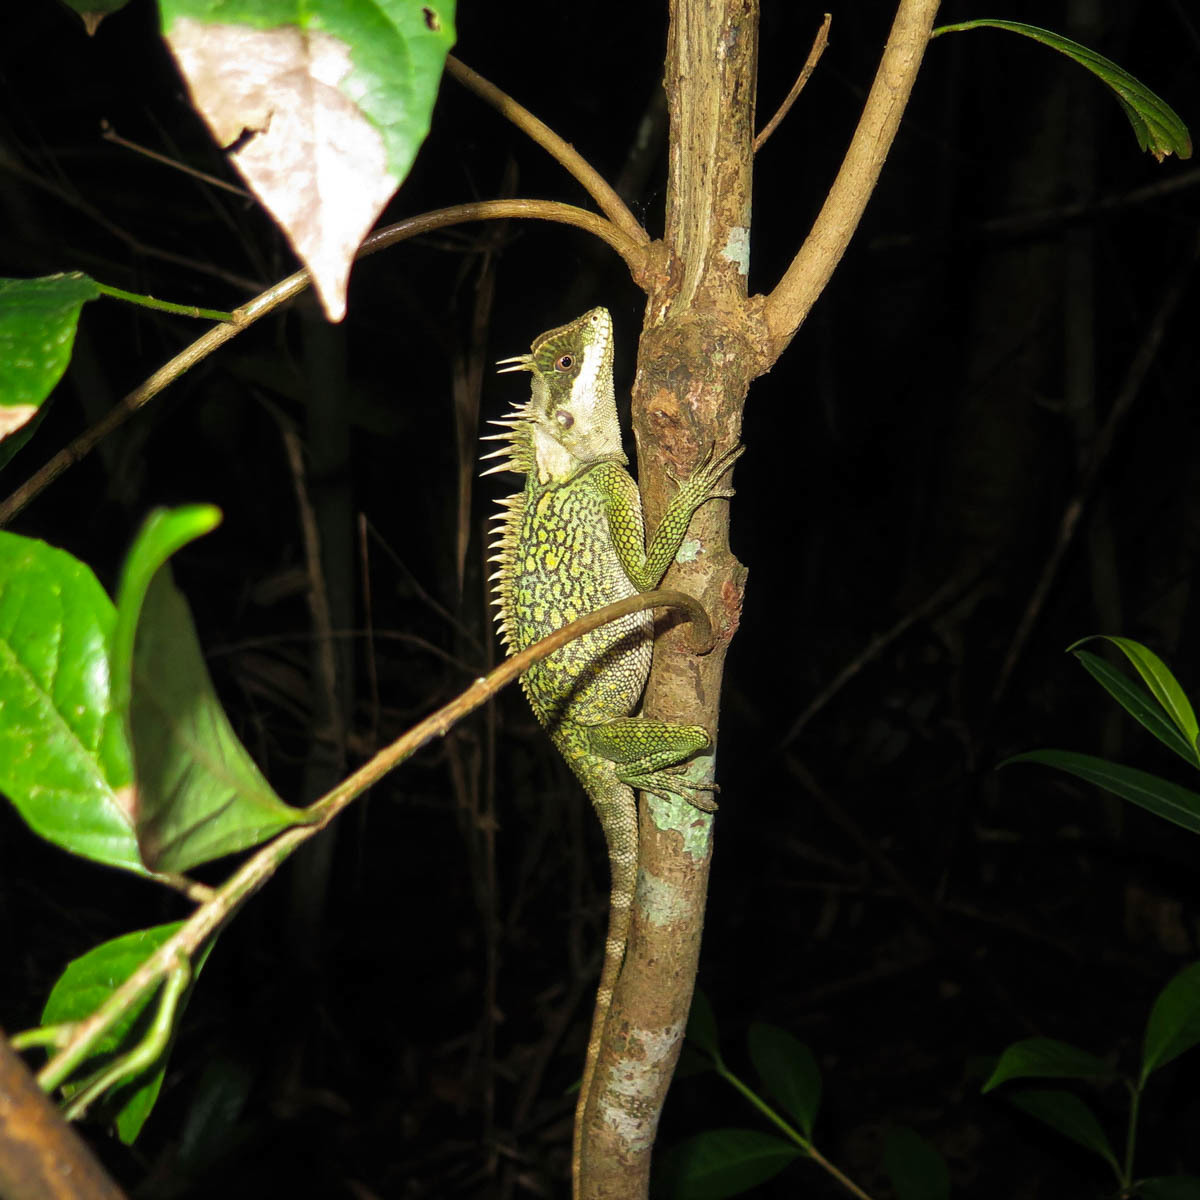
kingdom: Animalia
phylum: Chordata
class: Squamata
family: Agamidae
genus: Acanthosaura
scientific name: Acanthosaura cardamomensis
